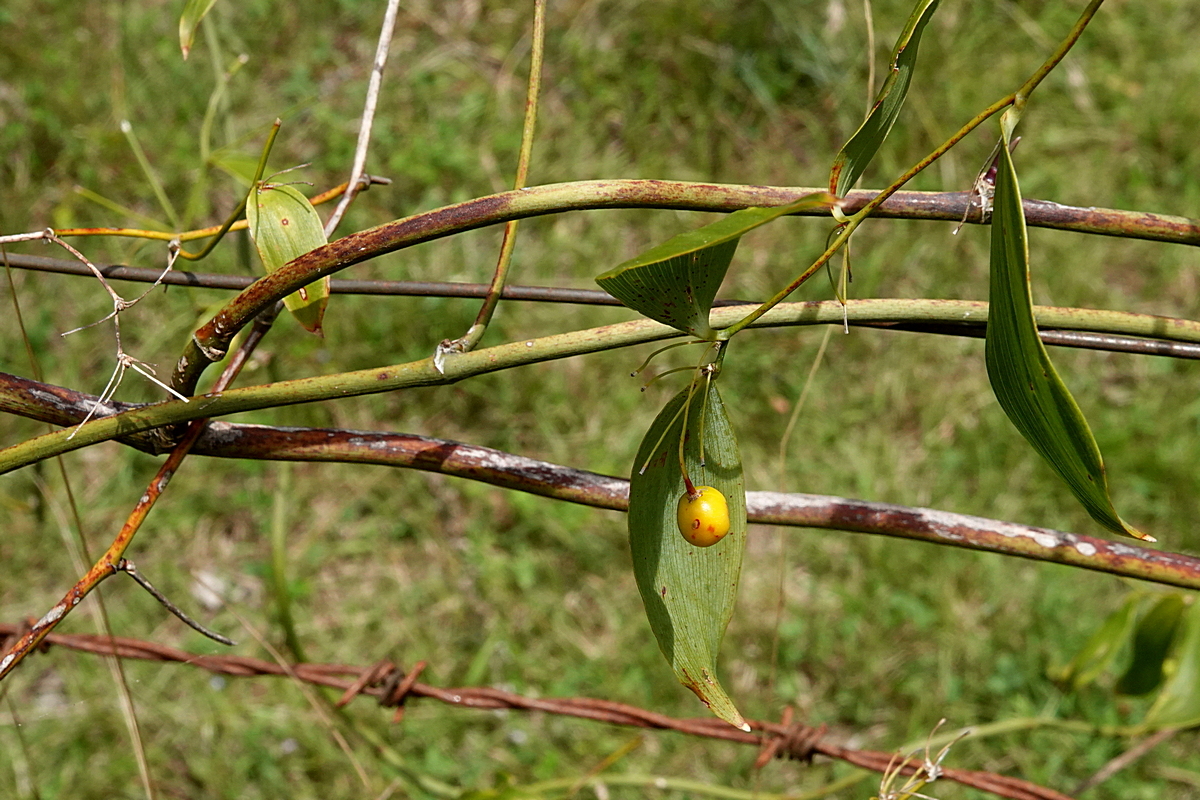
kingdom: Plantae
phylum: Tracheophyta
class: Liliopsida
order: Asparagales
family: Asparagaceae
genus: Eustrephus
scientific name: Eustrephus latifolius
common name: Orangevine
